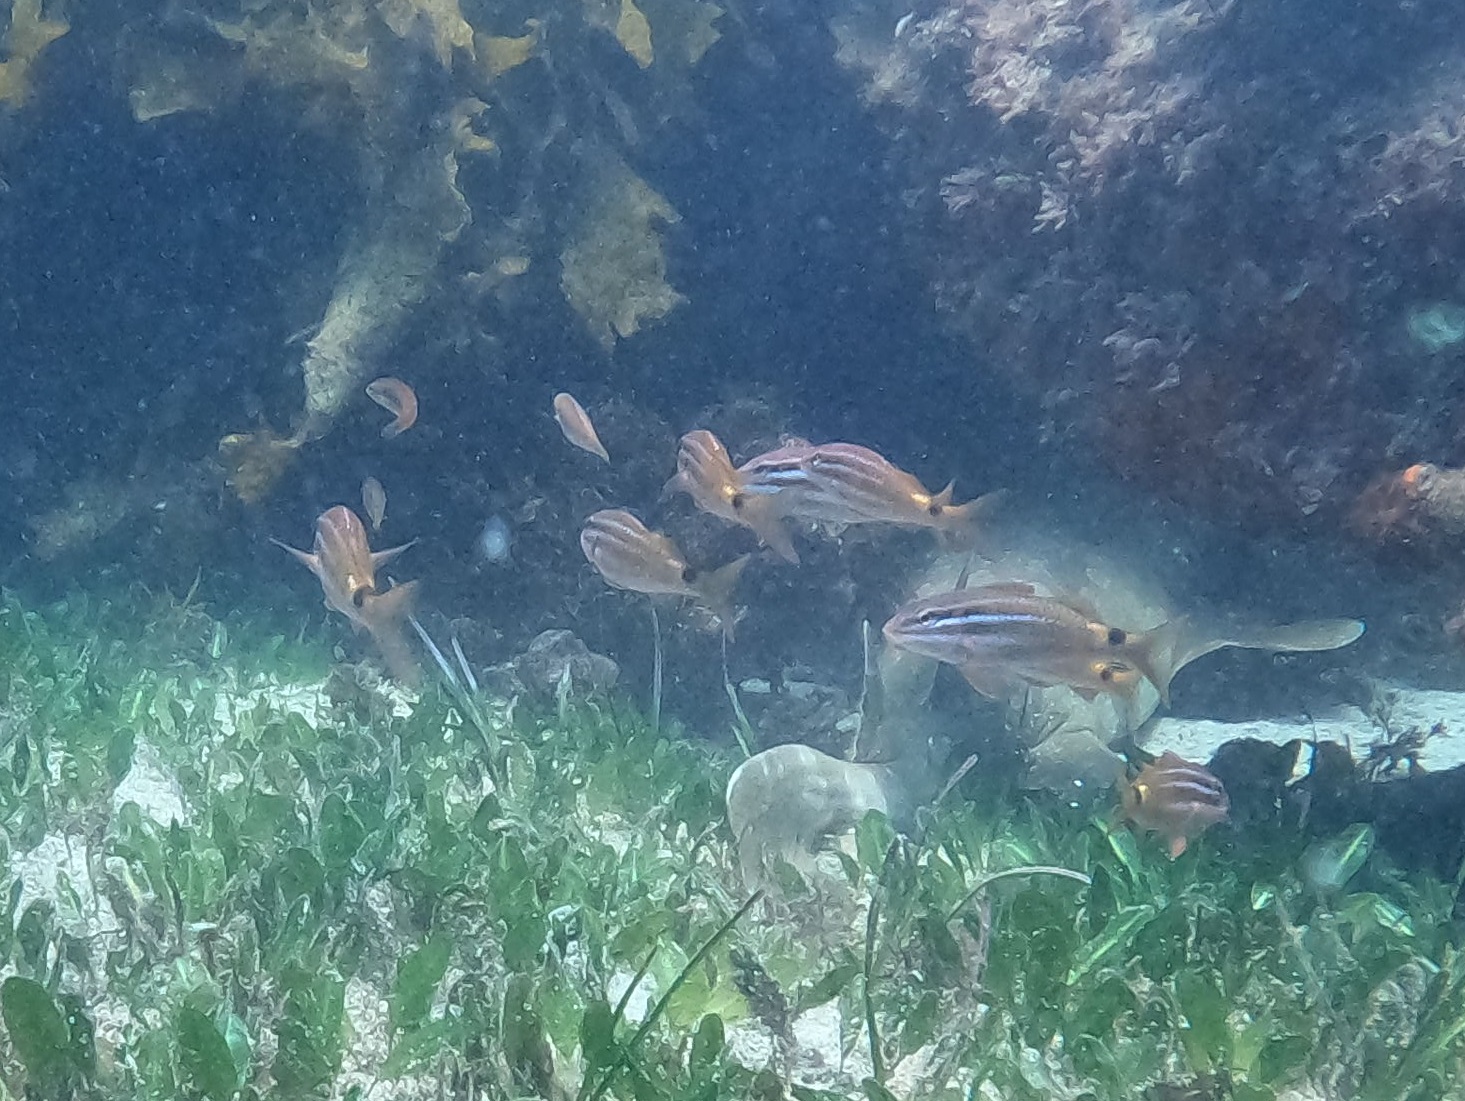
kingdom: Animalia
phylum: Chordata
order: Perciformes
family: Mullidae
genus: Parupeneus
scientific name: Parupeneus spilurus
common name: Blackspot goatfish
